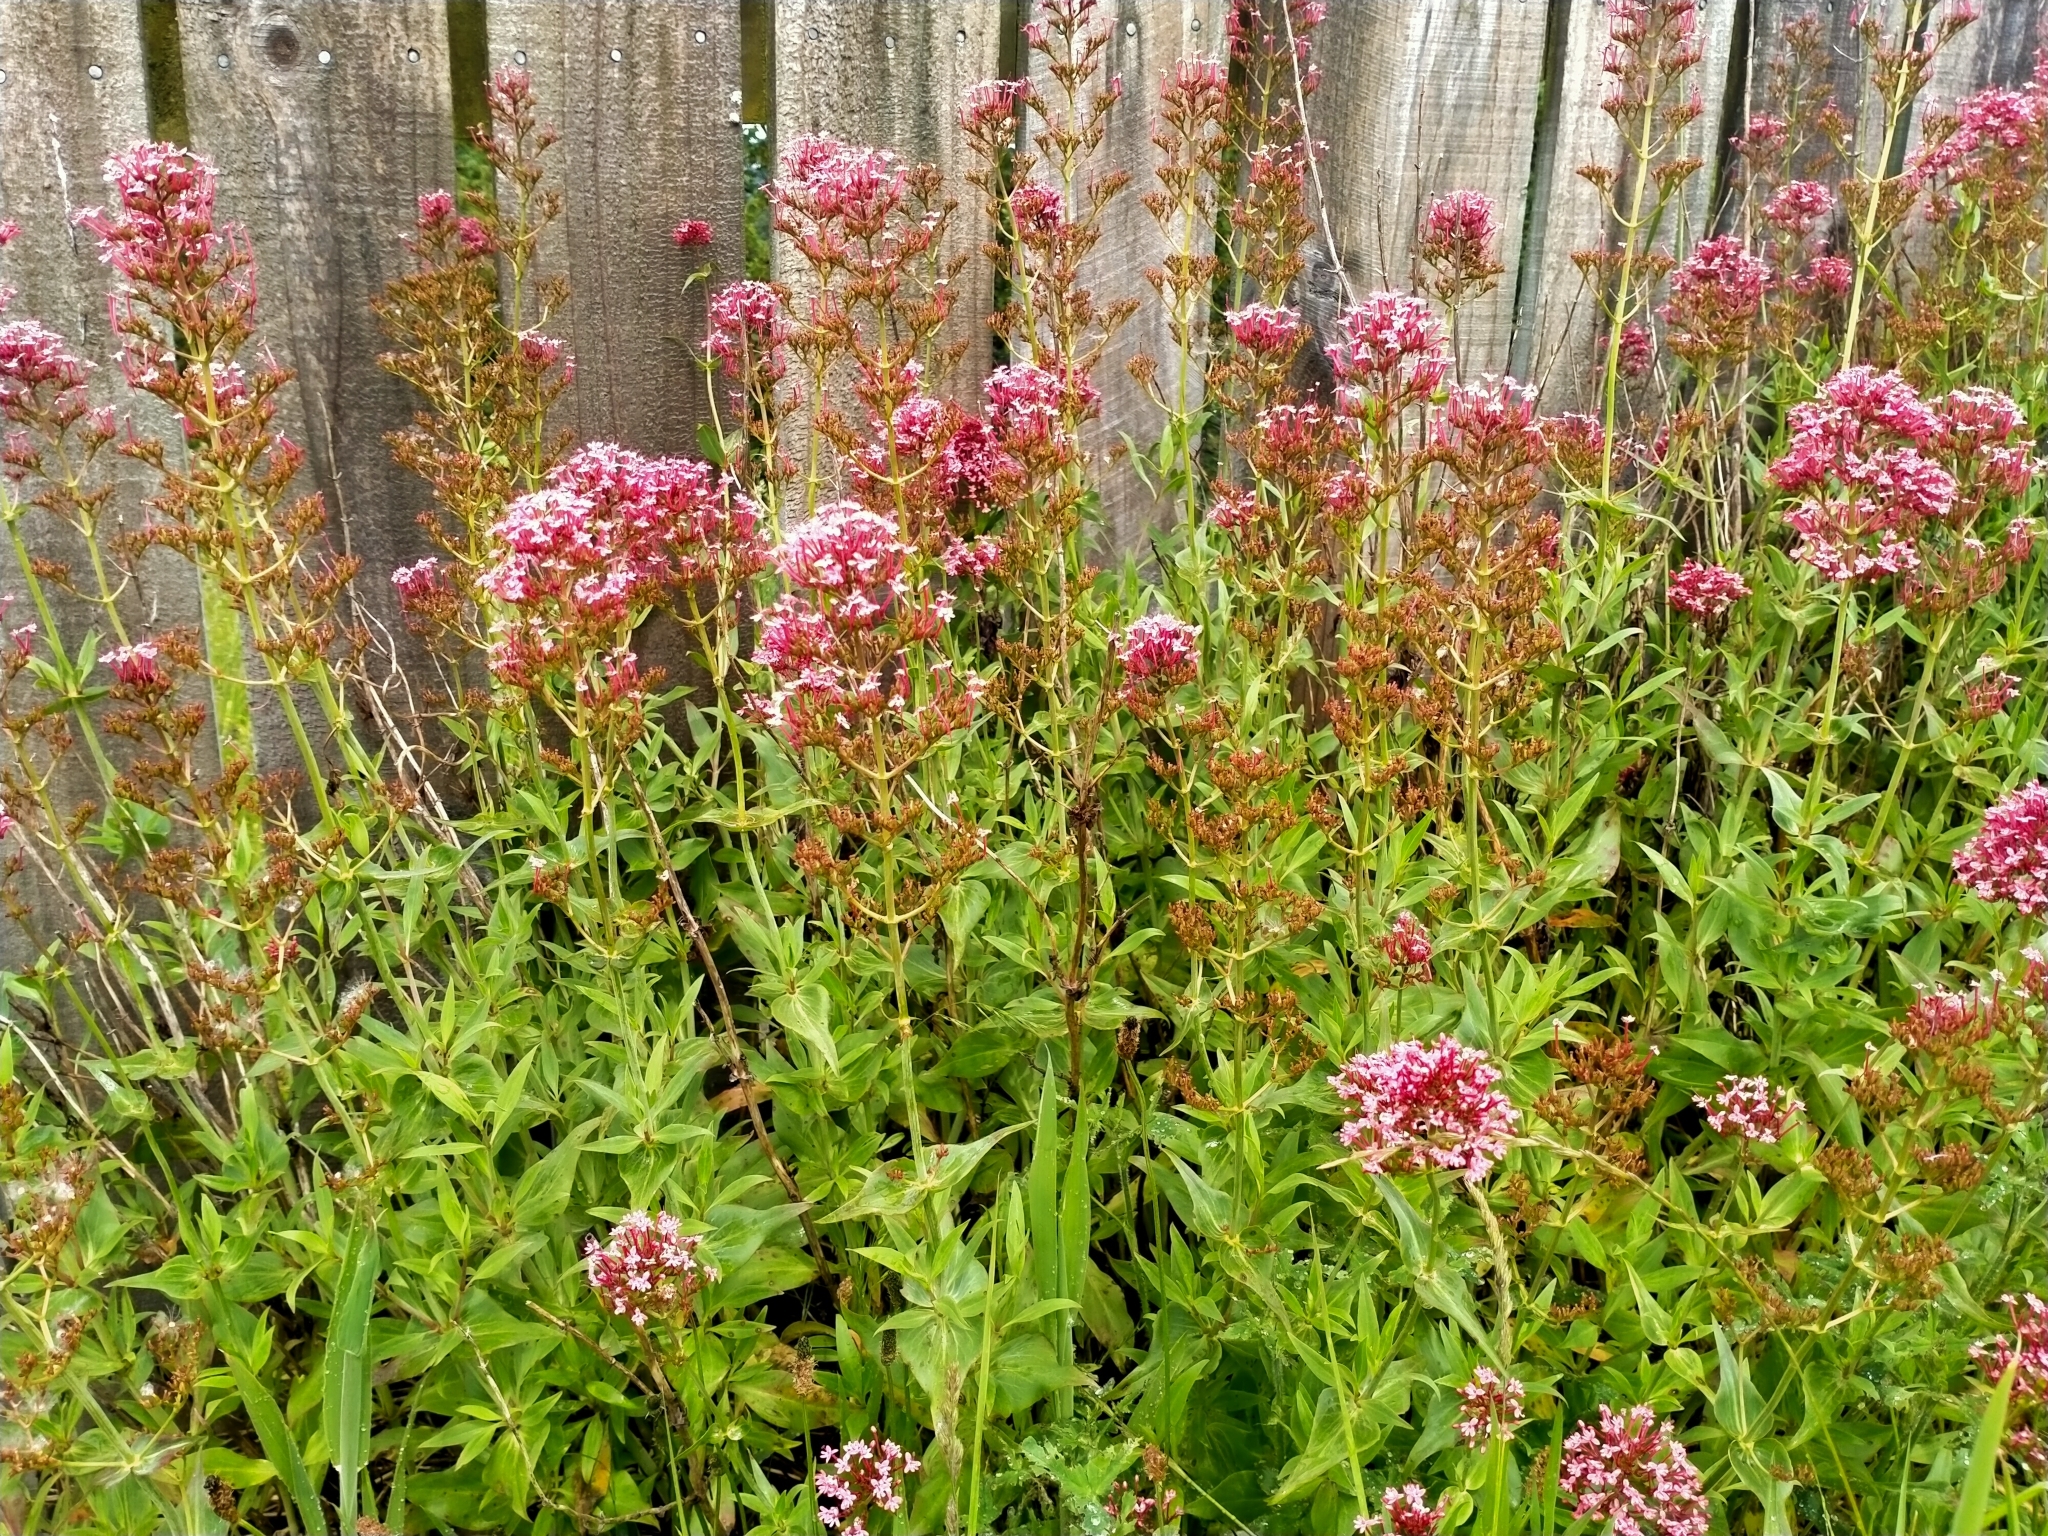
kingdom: Plantae
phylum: Tracheophyta
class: Magnoliopsida
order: Dipsacales
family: Caprifoliaceae
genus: Centranthus
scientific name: Centranthus ruber
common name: Red valerian
